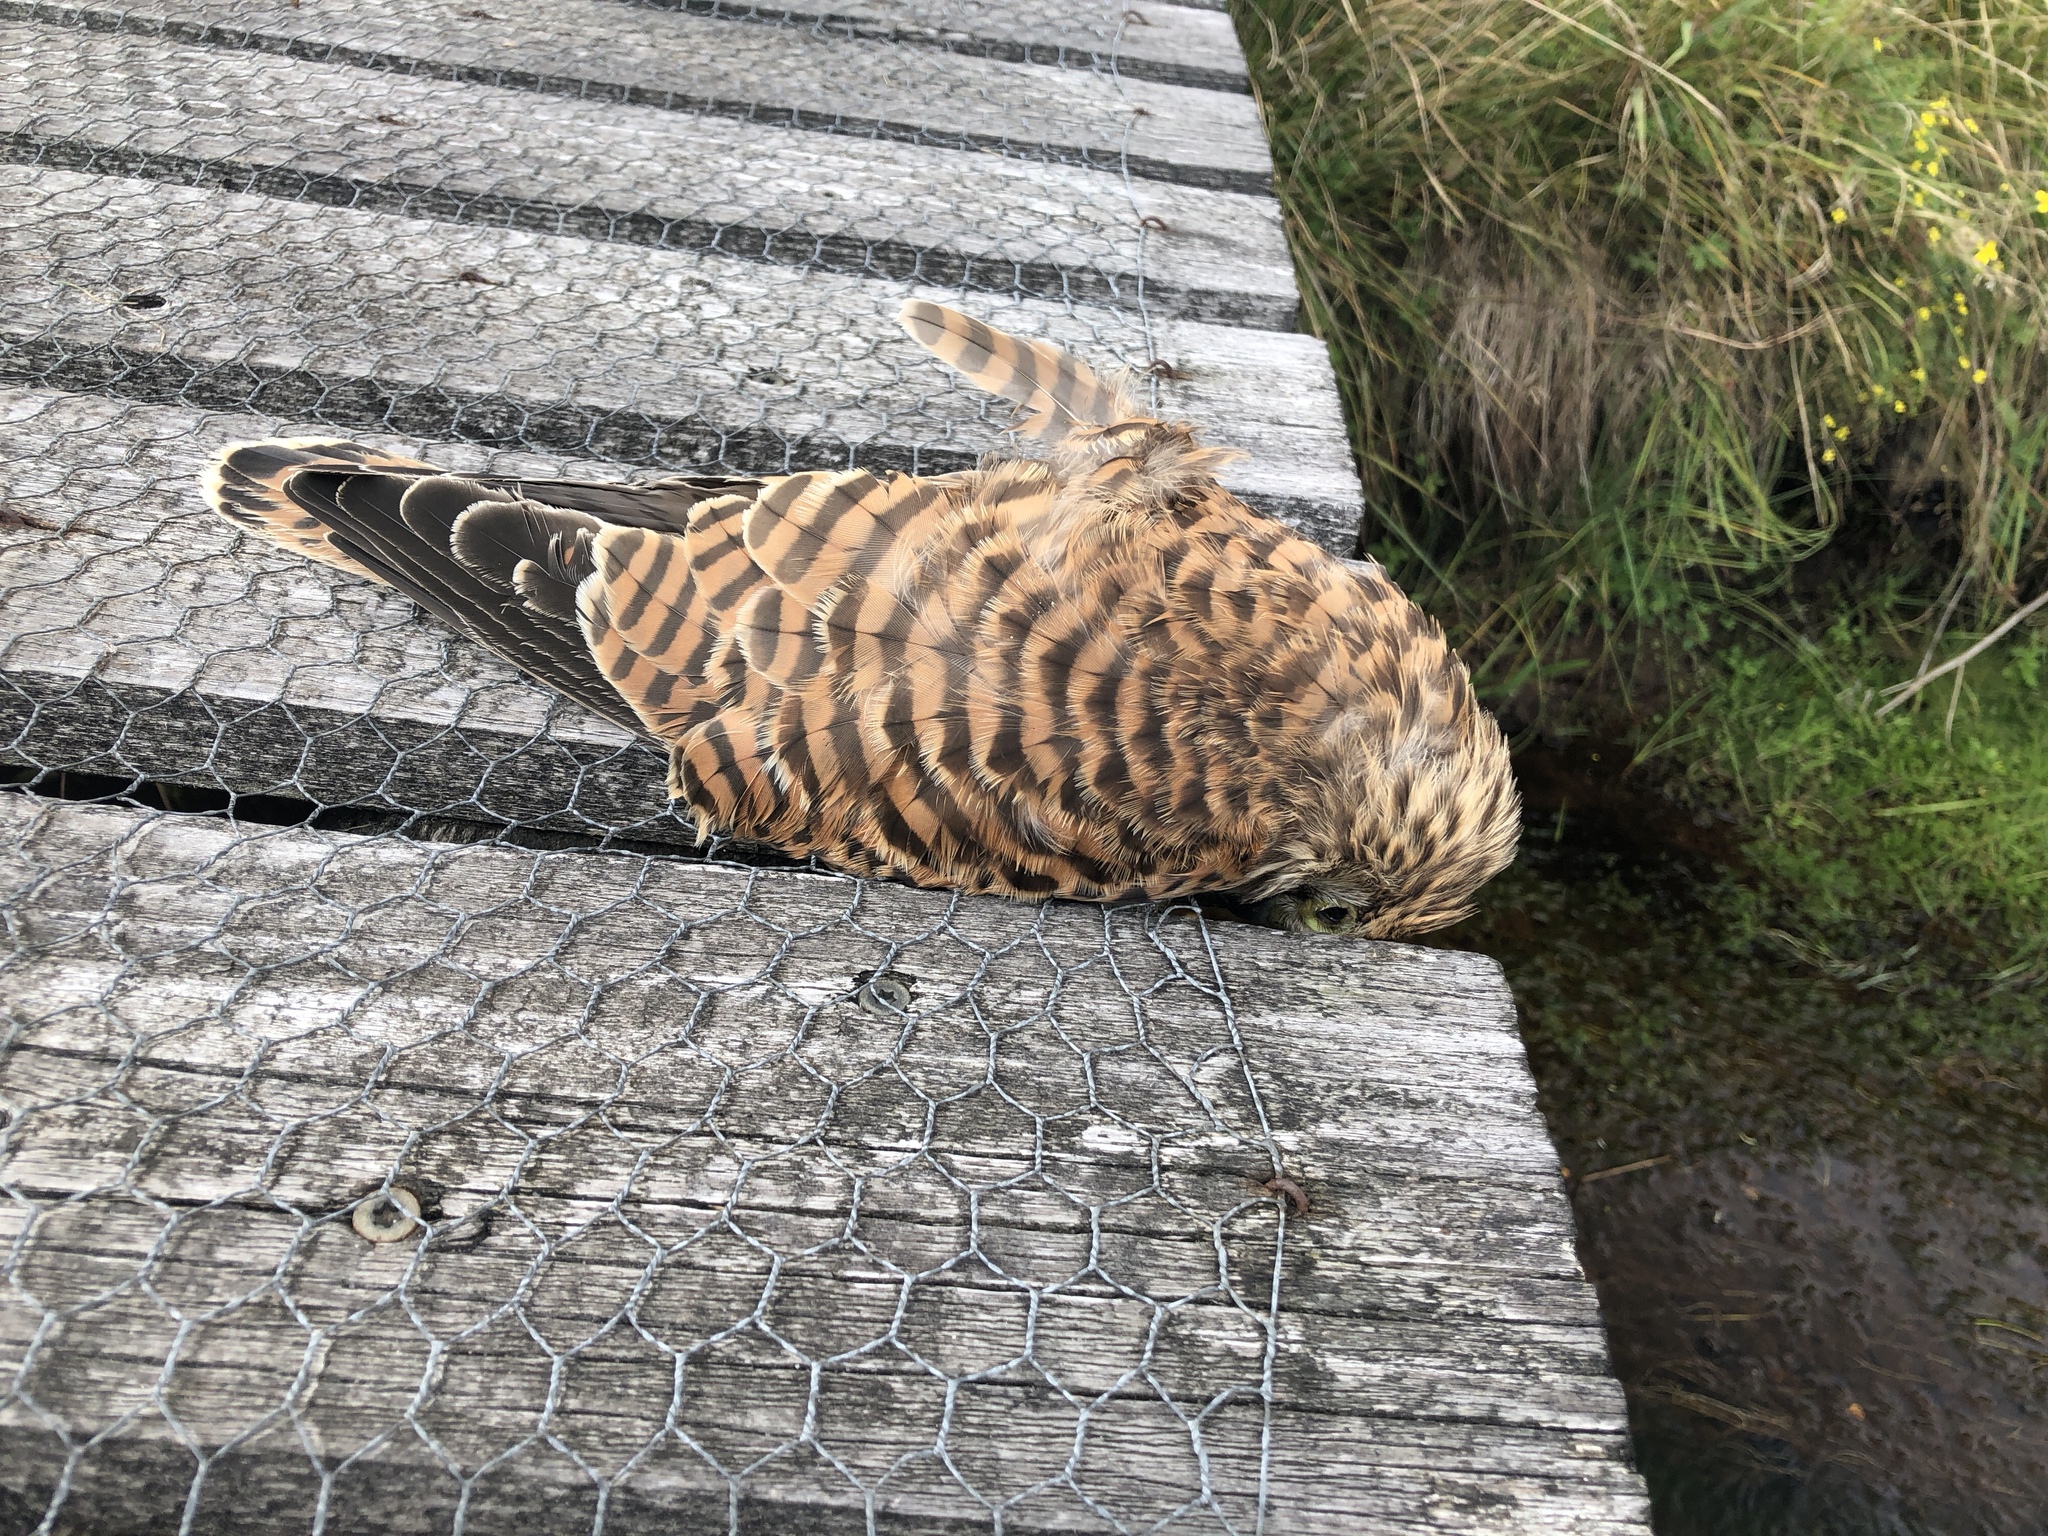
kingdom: Animalia
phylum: Chordata
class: Aves
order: Falconiformes
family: Falconidae
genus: Falco
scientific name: Falco tinnunculus
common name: Common kestrel
